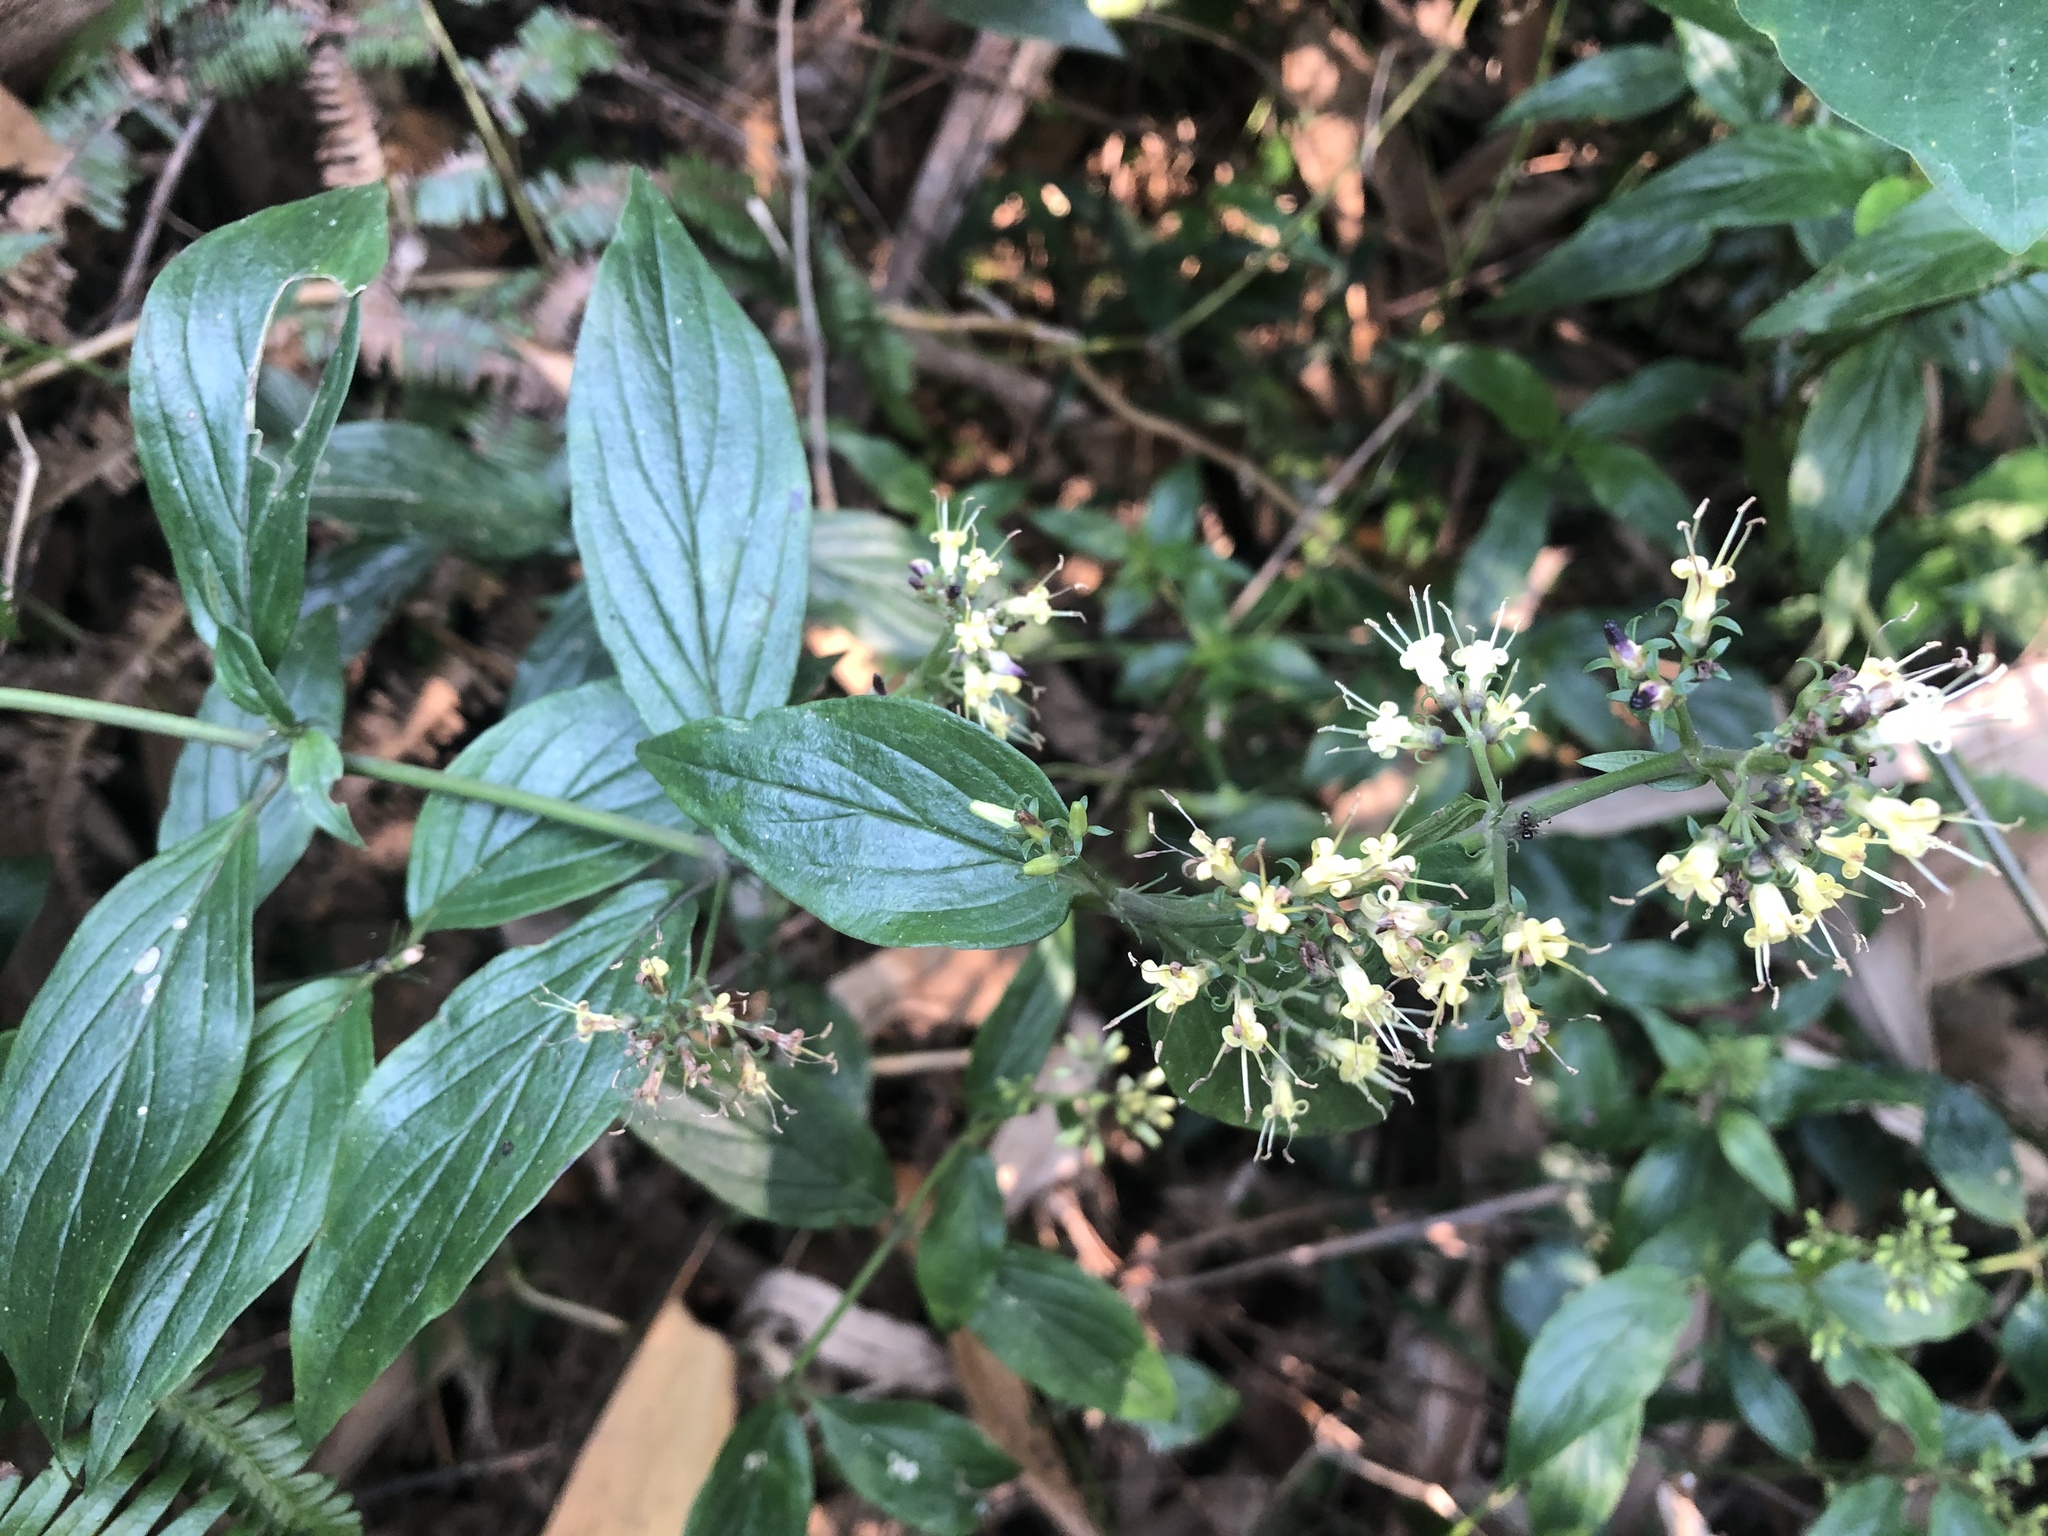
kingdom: Plantae
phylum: Tracheophyta
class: Magnoliopsida
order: Gentianales
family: Rubiaceae
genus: Dimetia
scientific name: Dimetia hedyotidea
